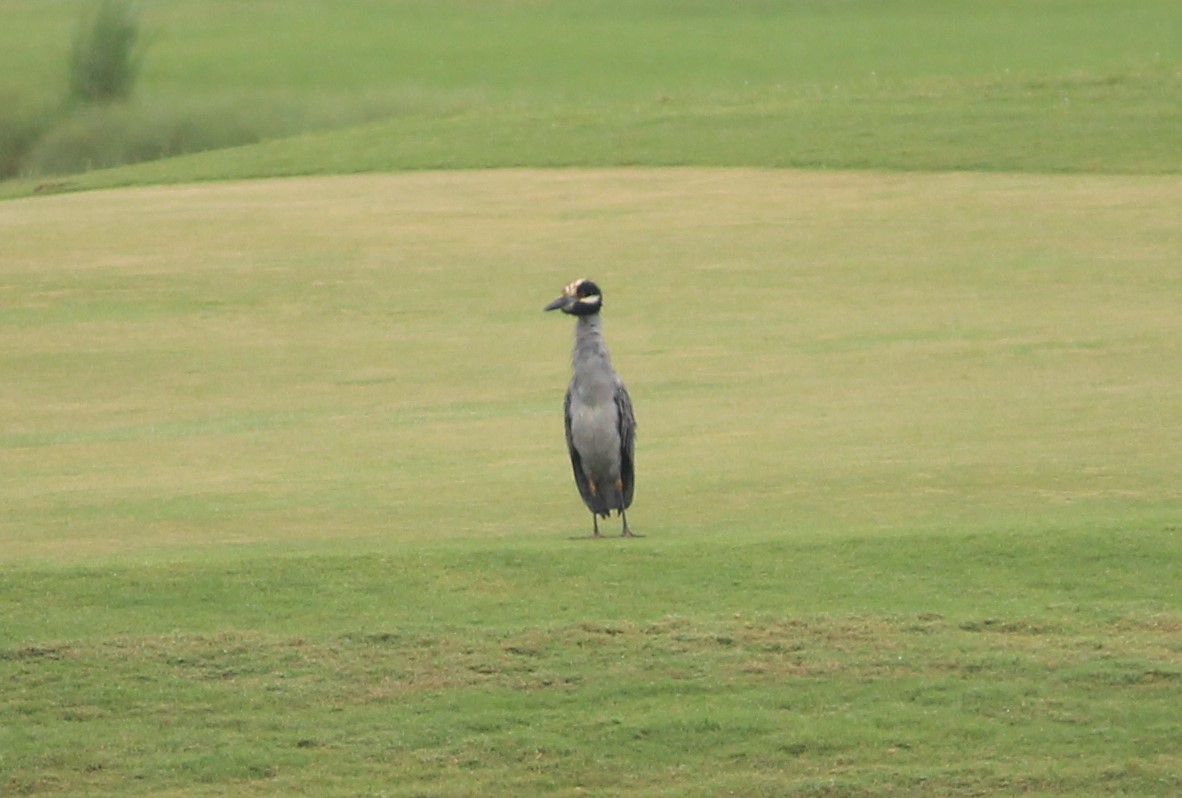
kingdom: Animalia
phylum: Chordata
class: Aves
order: Pelecaniformes
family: Ardeidae
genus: Nyctanassa
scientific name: Nyctanassa violacea
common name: Yellow-crowned night heron
